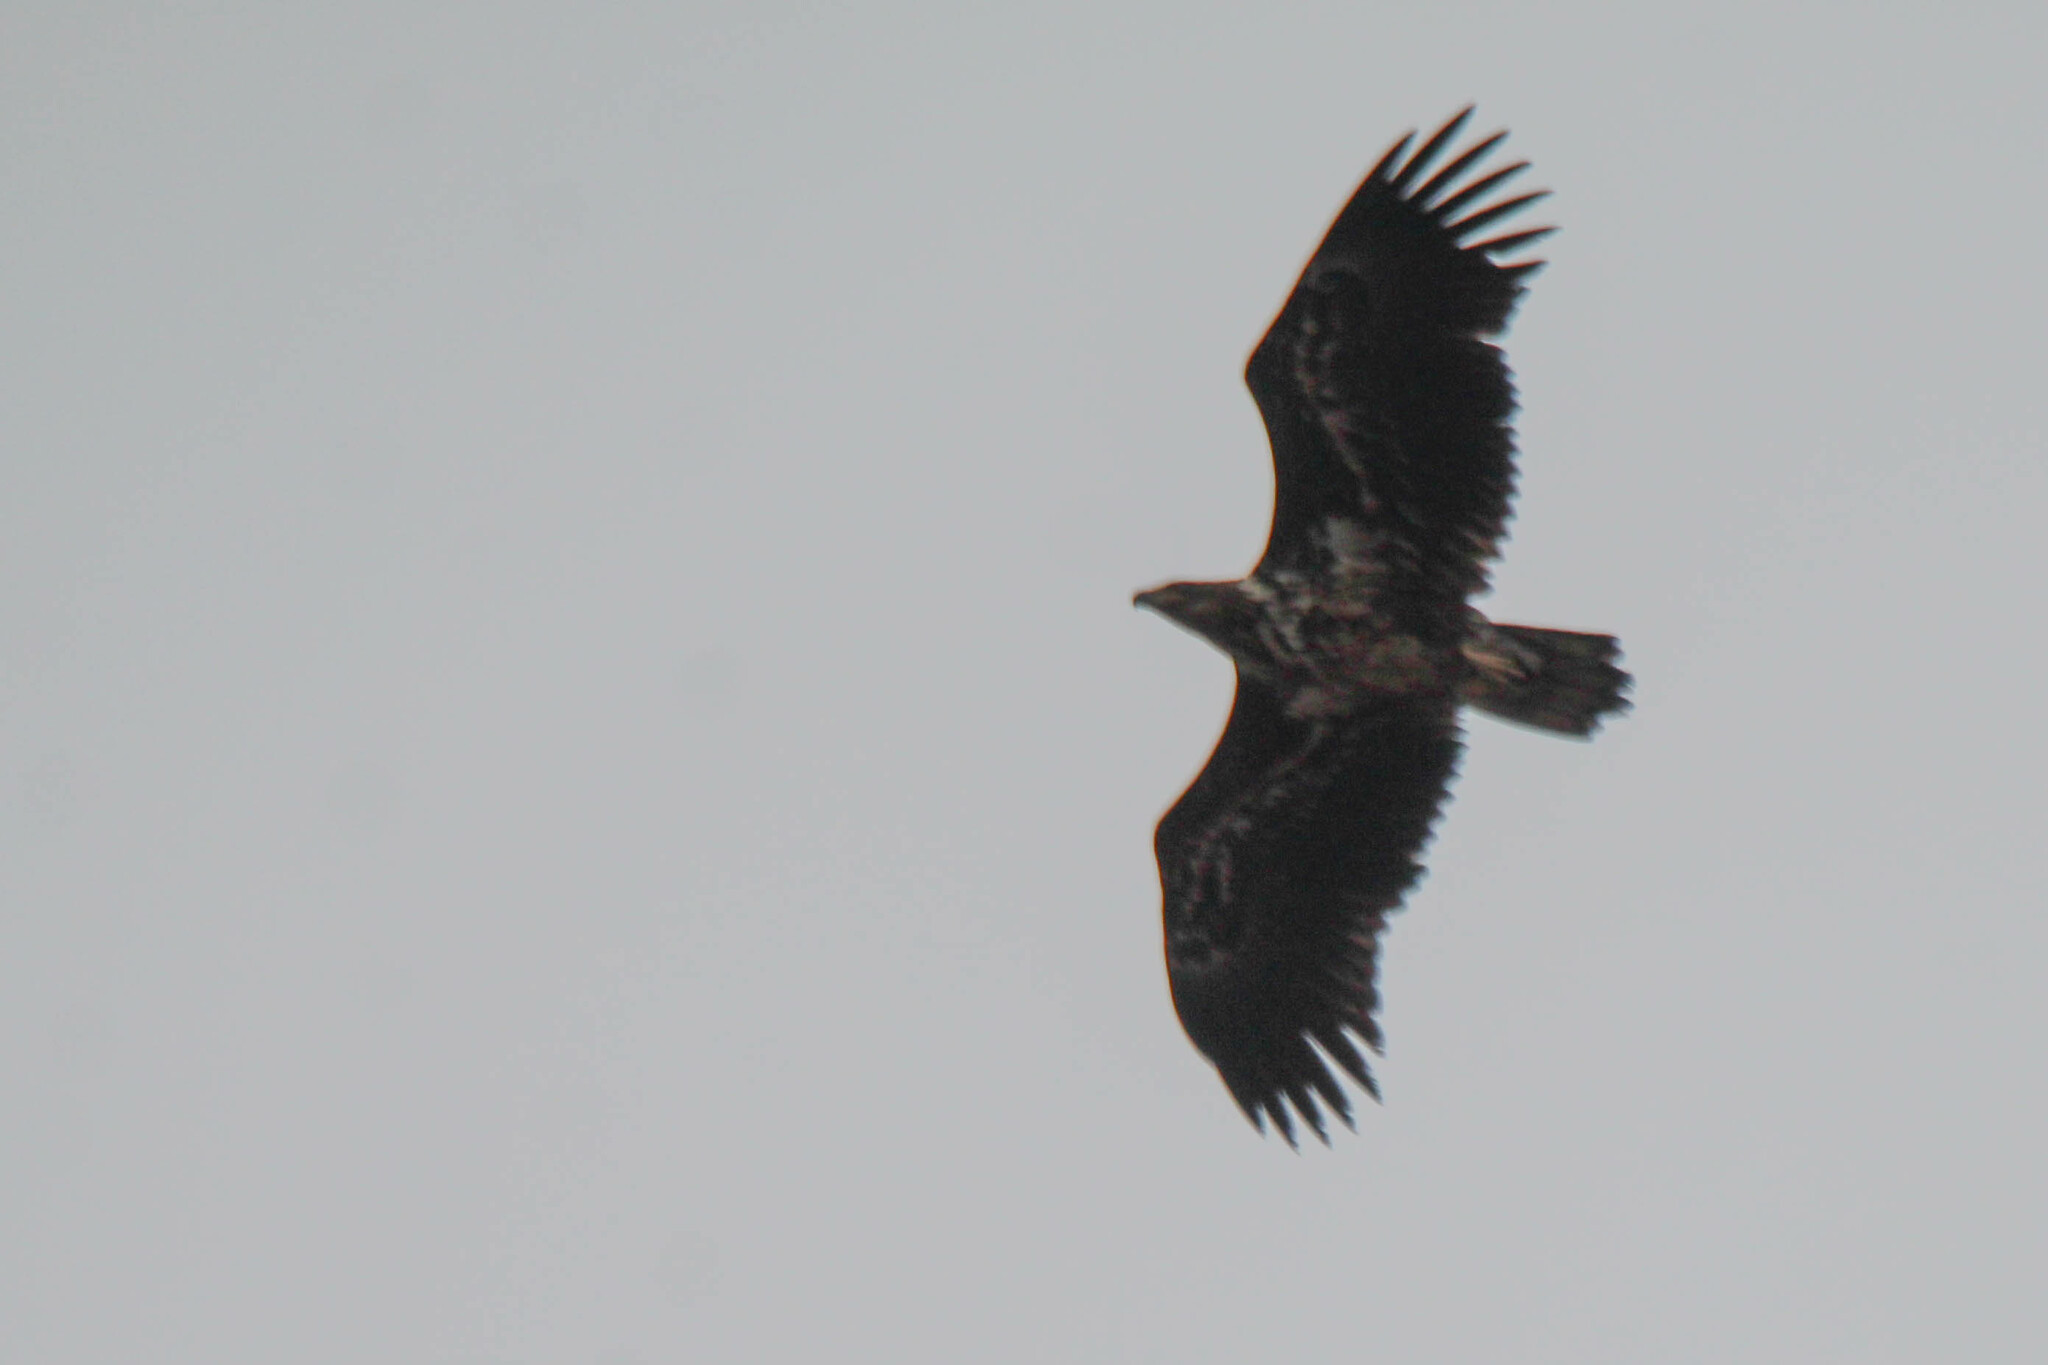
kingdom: Animalia
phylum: Chordata
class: Aves
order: Accipitriformes
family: Accipitridae
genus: Haliaeetus
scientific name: Haliaeetus albicilla
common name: White-tailed eagle
